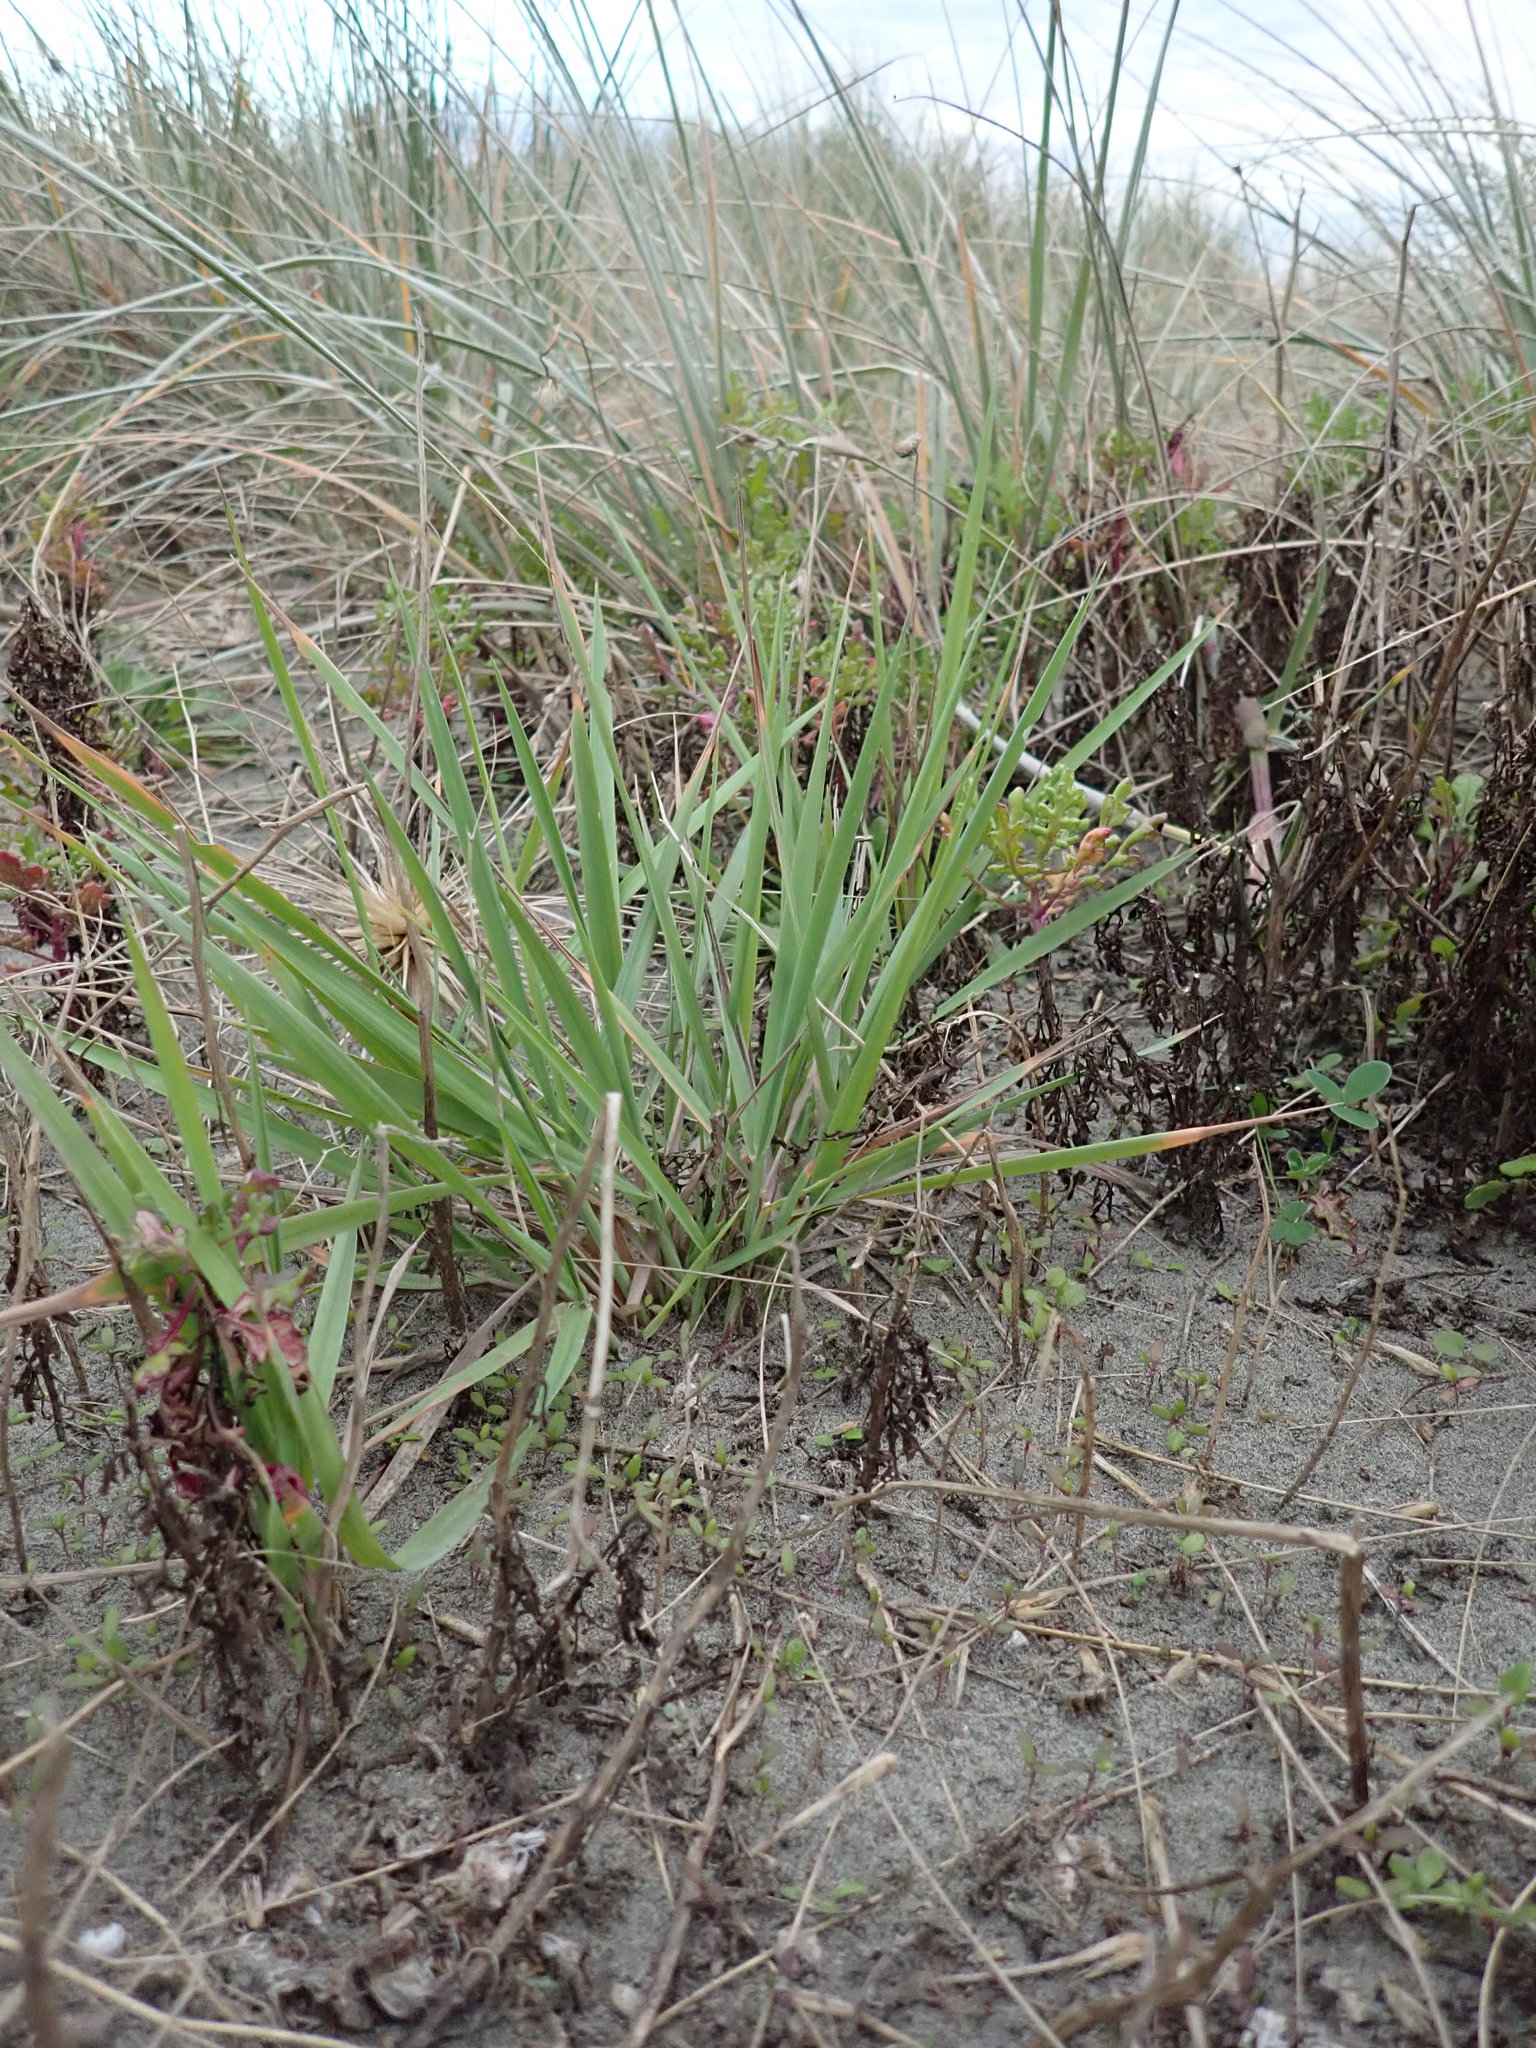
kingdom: Plantae
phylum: Tracheophyta
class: Liliopsida
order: Poales
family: Poaceae
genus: Lachnagrostis
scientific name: Lachnagrostis billardierei
